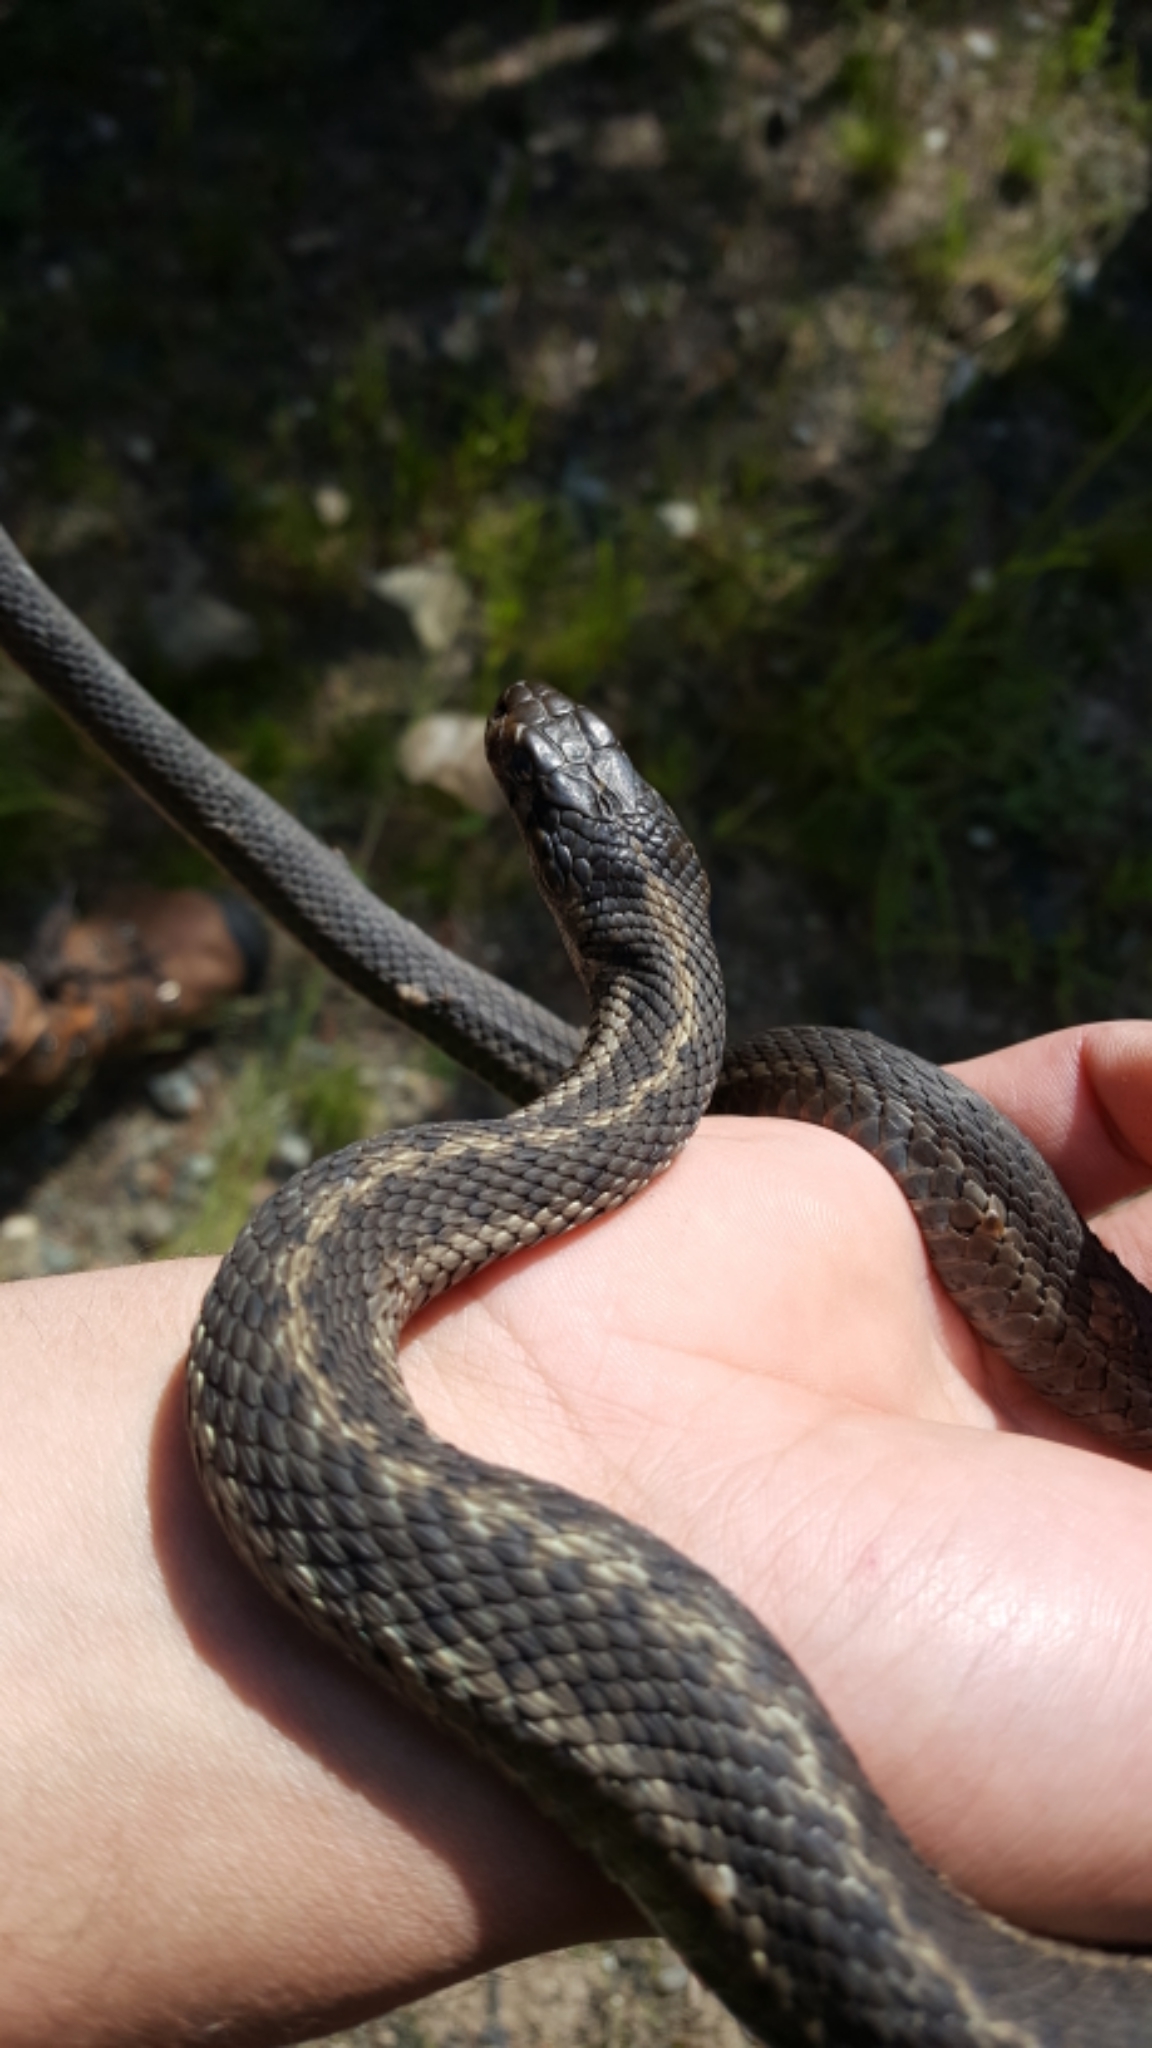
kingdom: Animalia
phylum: Chordata
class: Squamata
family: Colubridae
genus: Thamnophis
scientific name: Thamnophis elegans
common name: Western terrestrial garter snake
